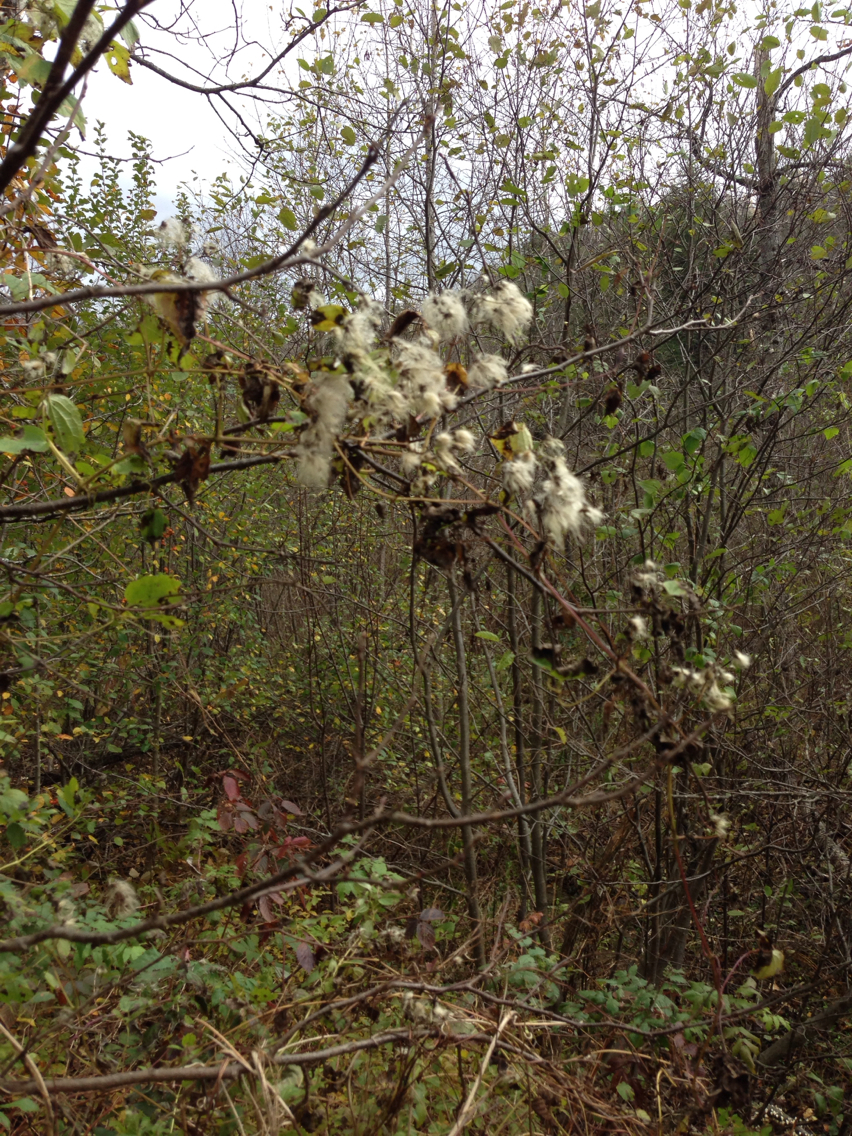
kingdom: Plantae
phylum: Tracheophyta
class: Magnoliopsida
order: Ranunculales
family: Ranunculaceae
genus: Clematis
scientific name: Clematis virginiana
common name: Virgin's-bower
